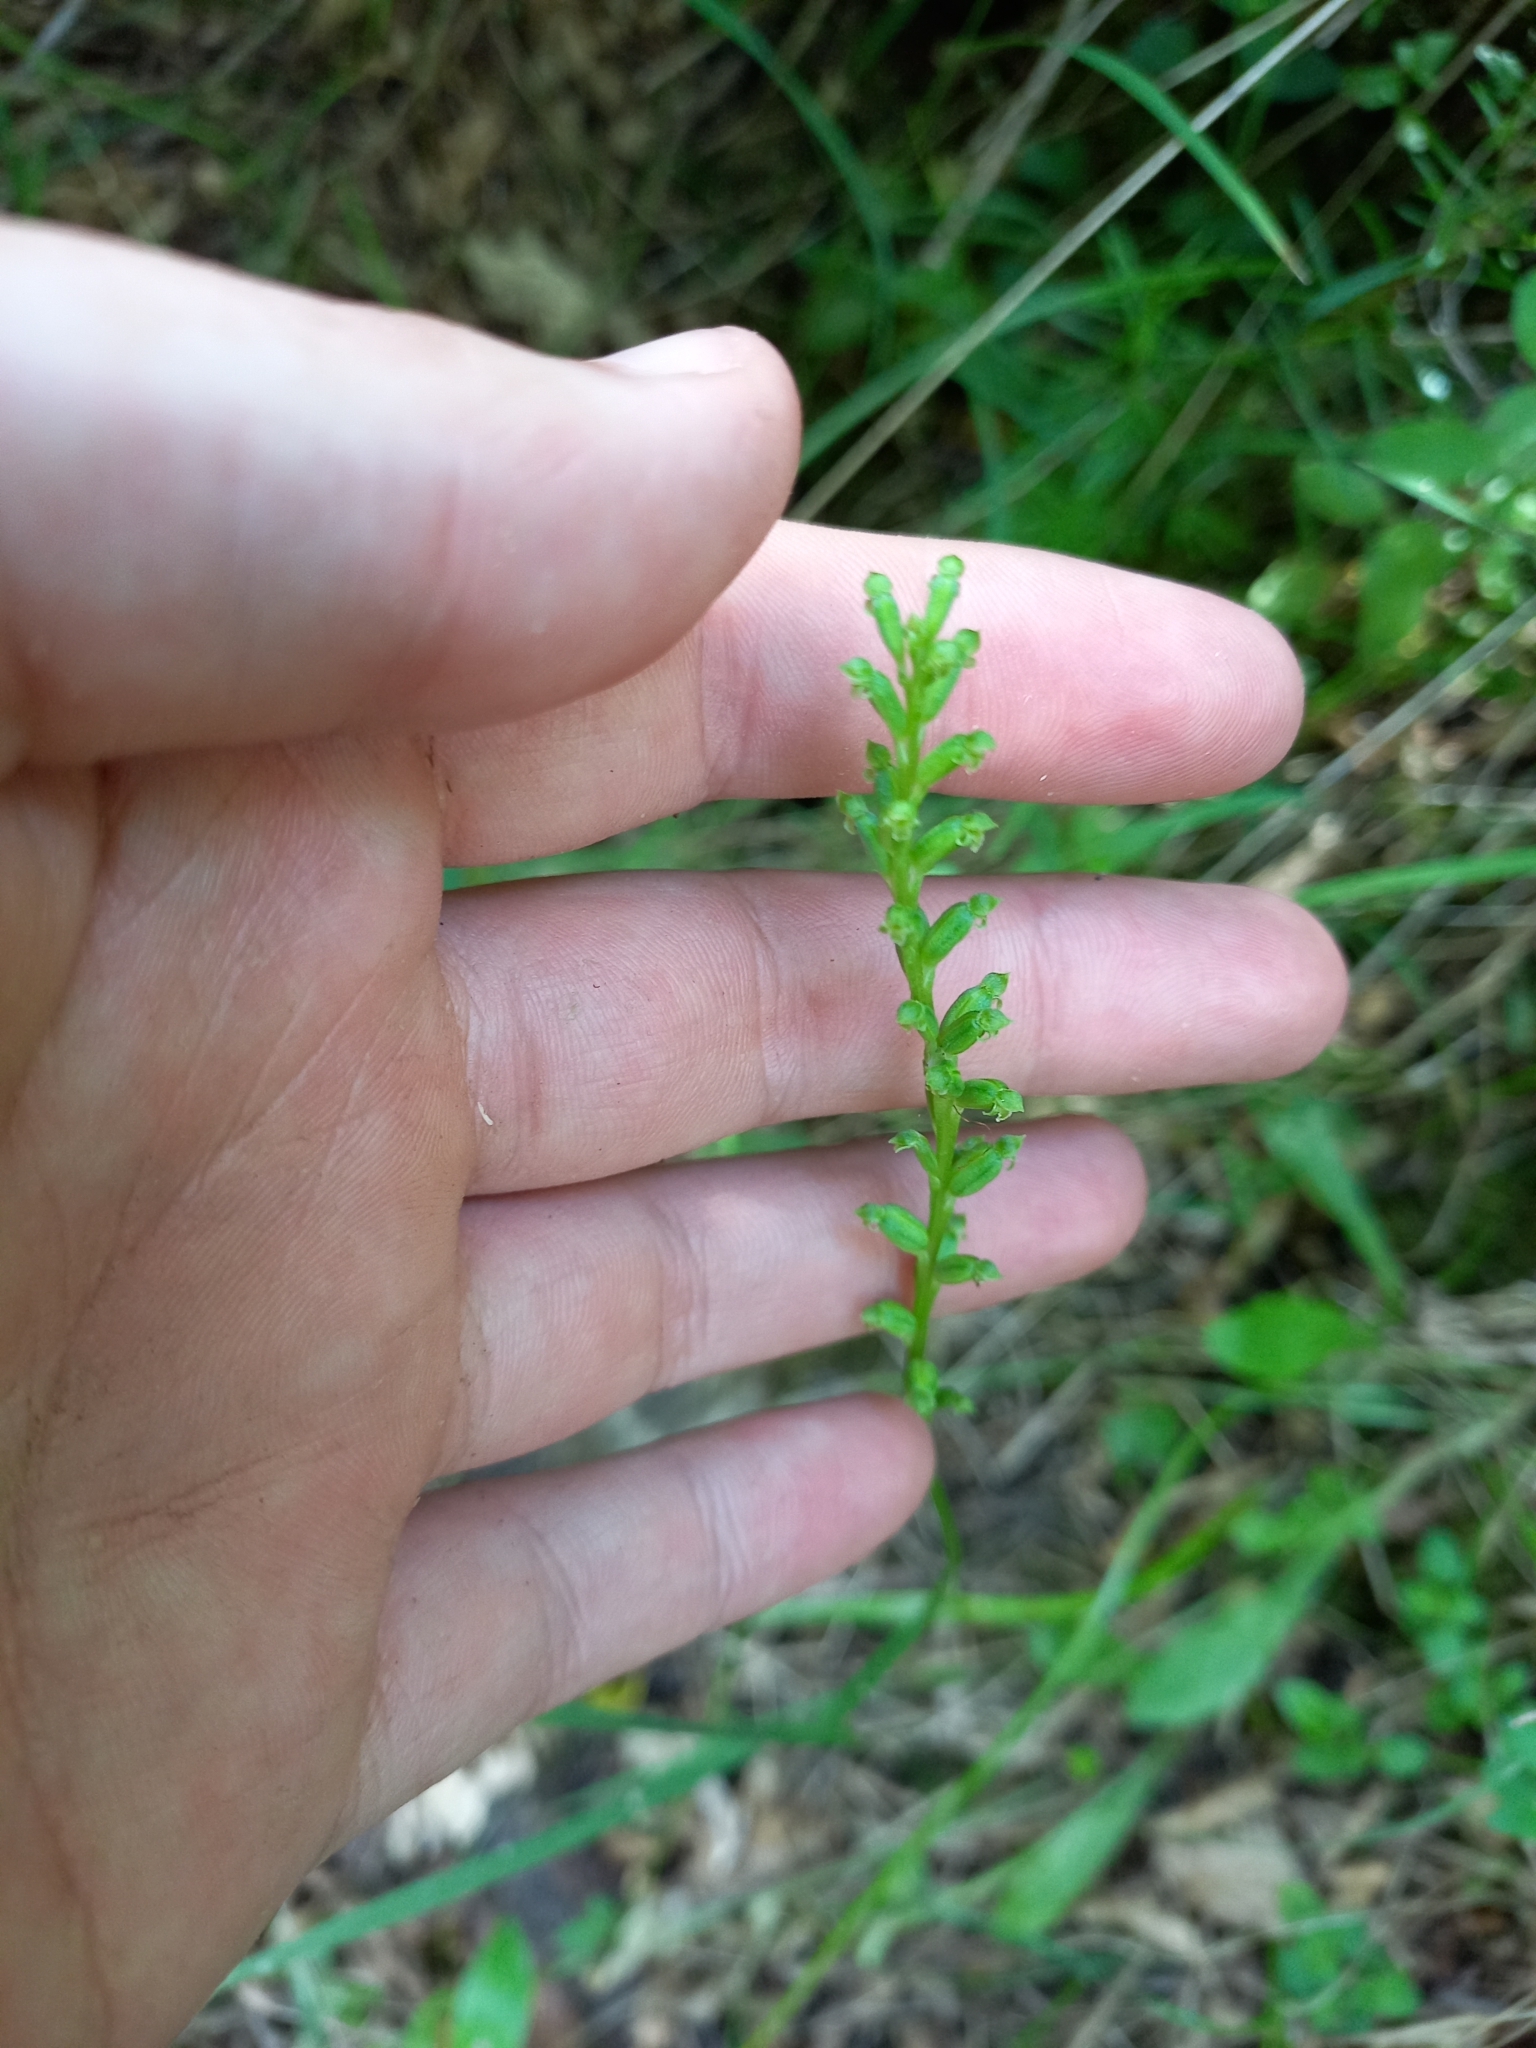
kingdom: Plantae
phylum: Tracheophyta
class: Liliopsida
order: Asparagales
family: Orchidaceae
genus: Microtis
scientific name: Microtis unifolia
